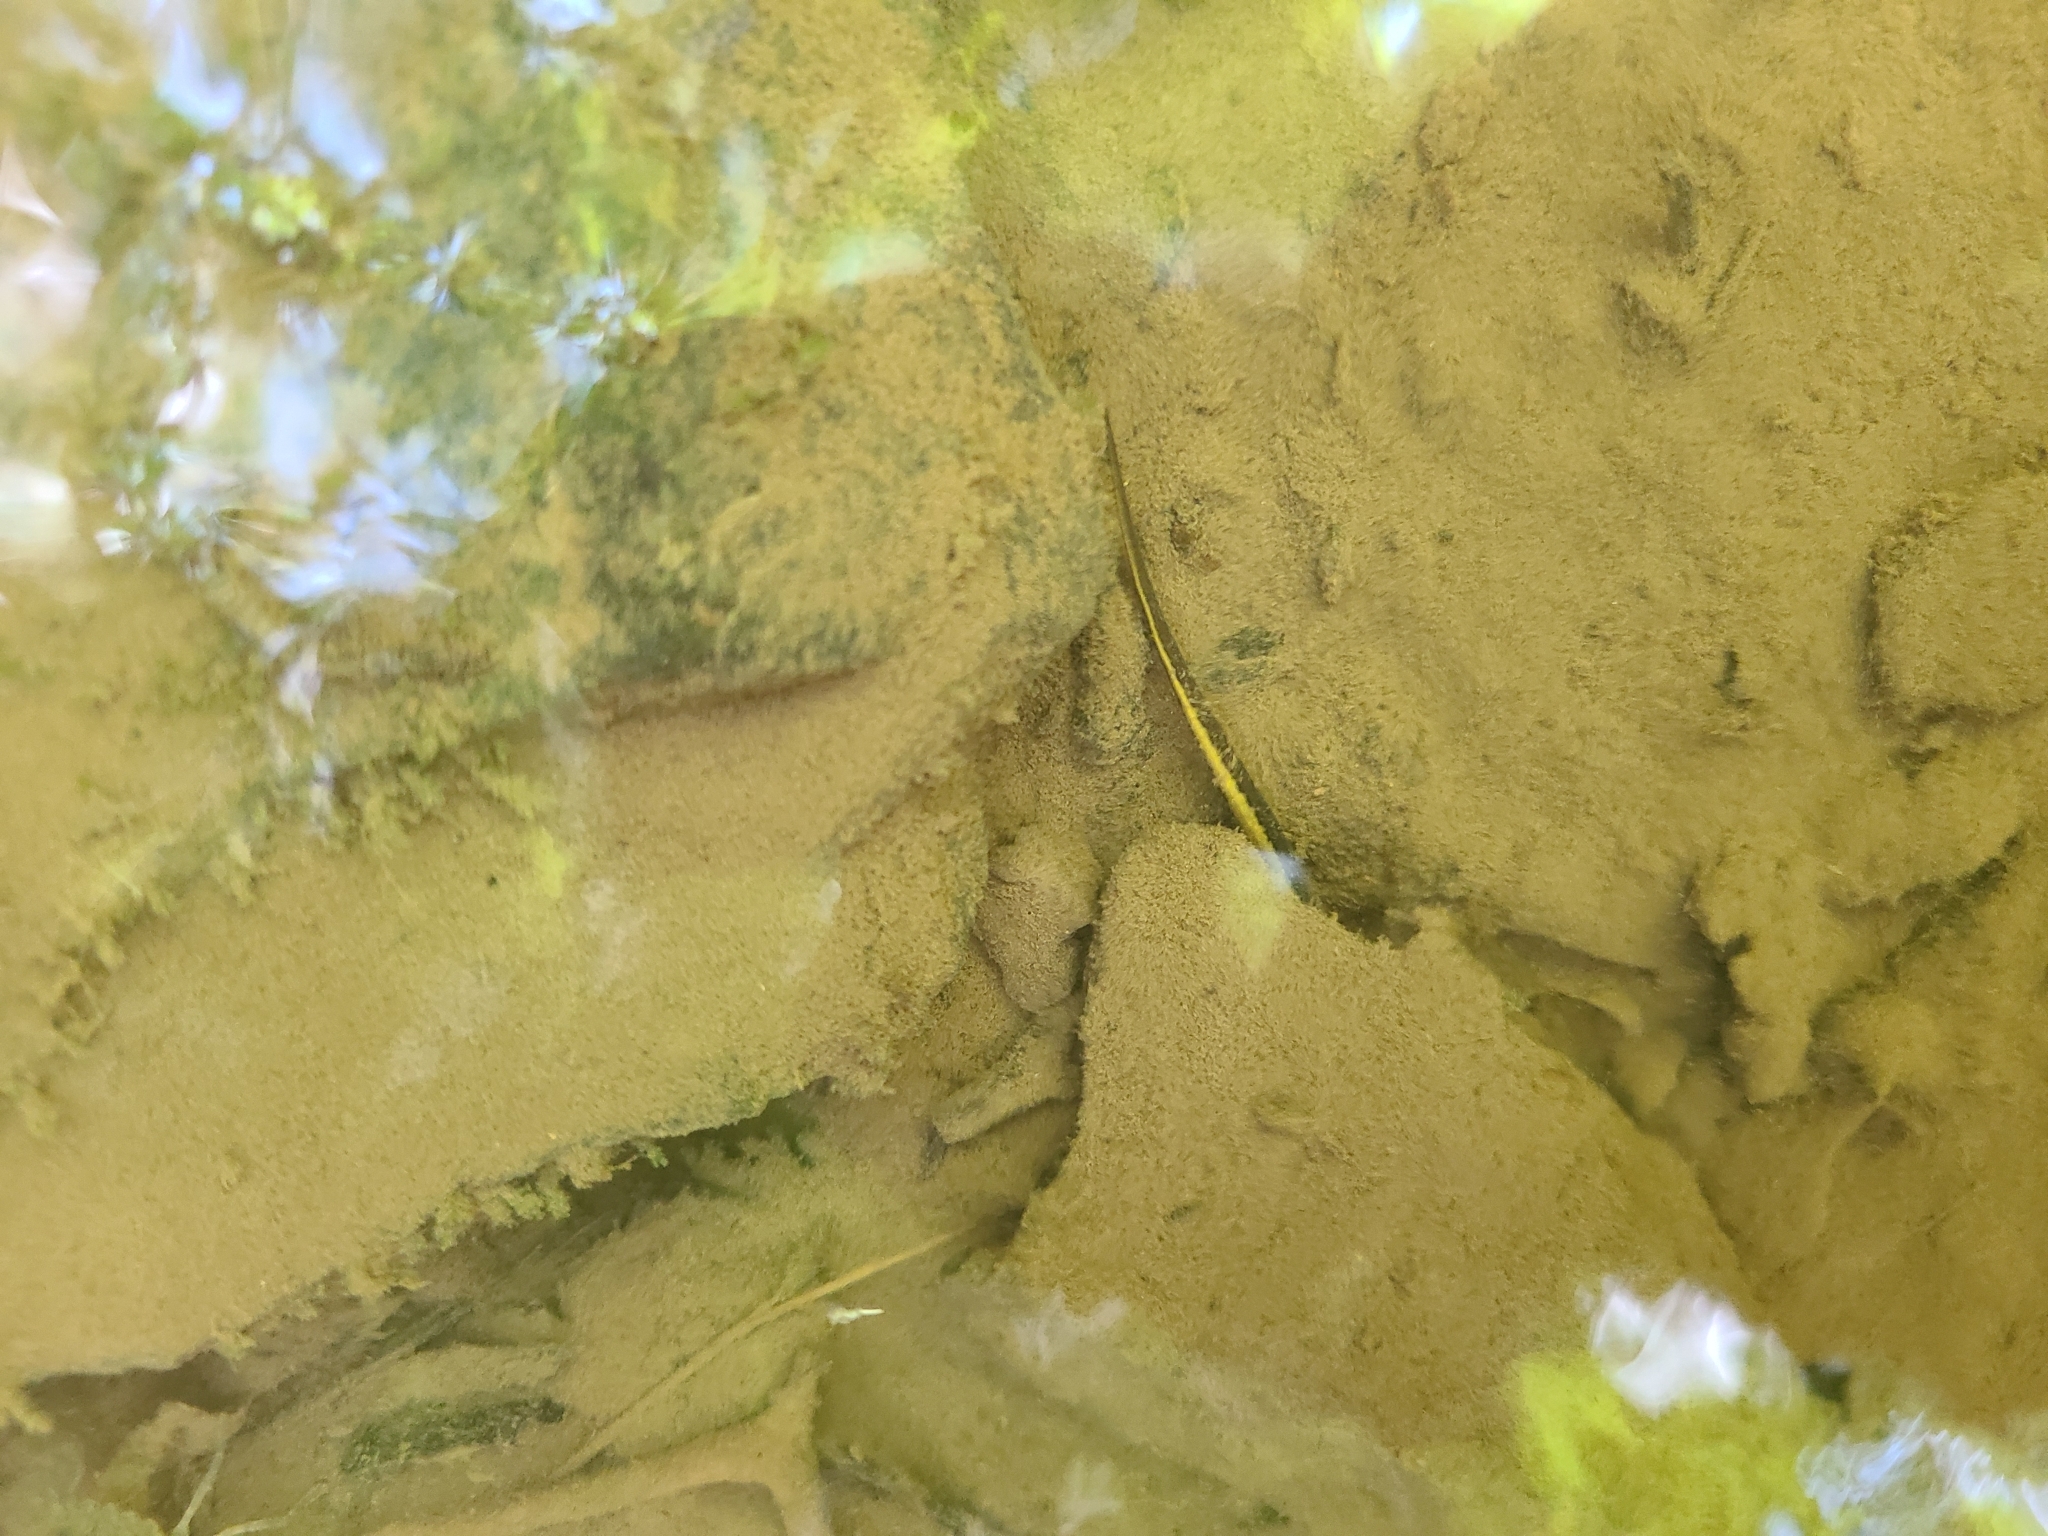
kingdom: Animalia
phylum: Chordata
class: Amphibia
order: Caudata
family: Plethodontidae
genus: Eurycea
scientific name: Eurycea bislineata
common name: Northern two-lined salamander
